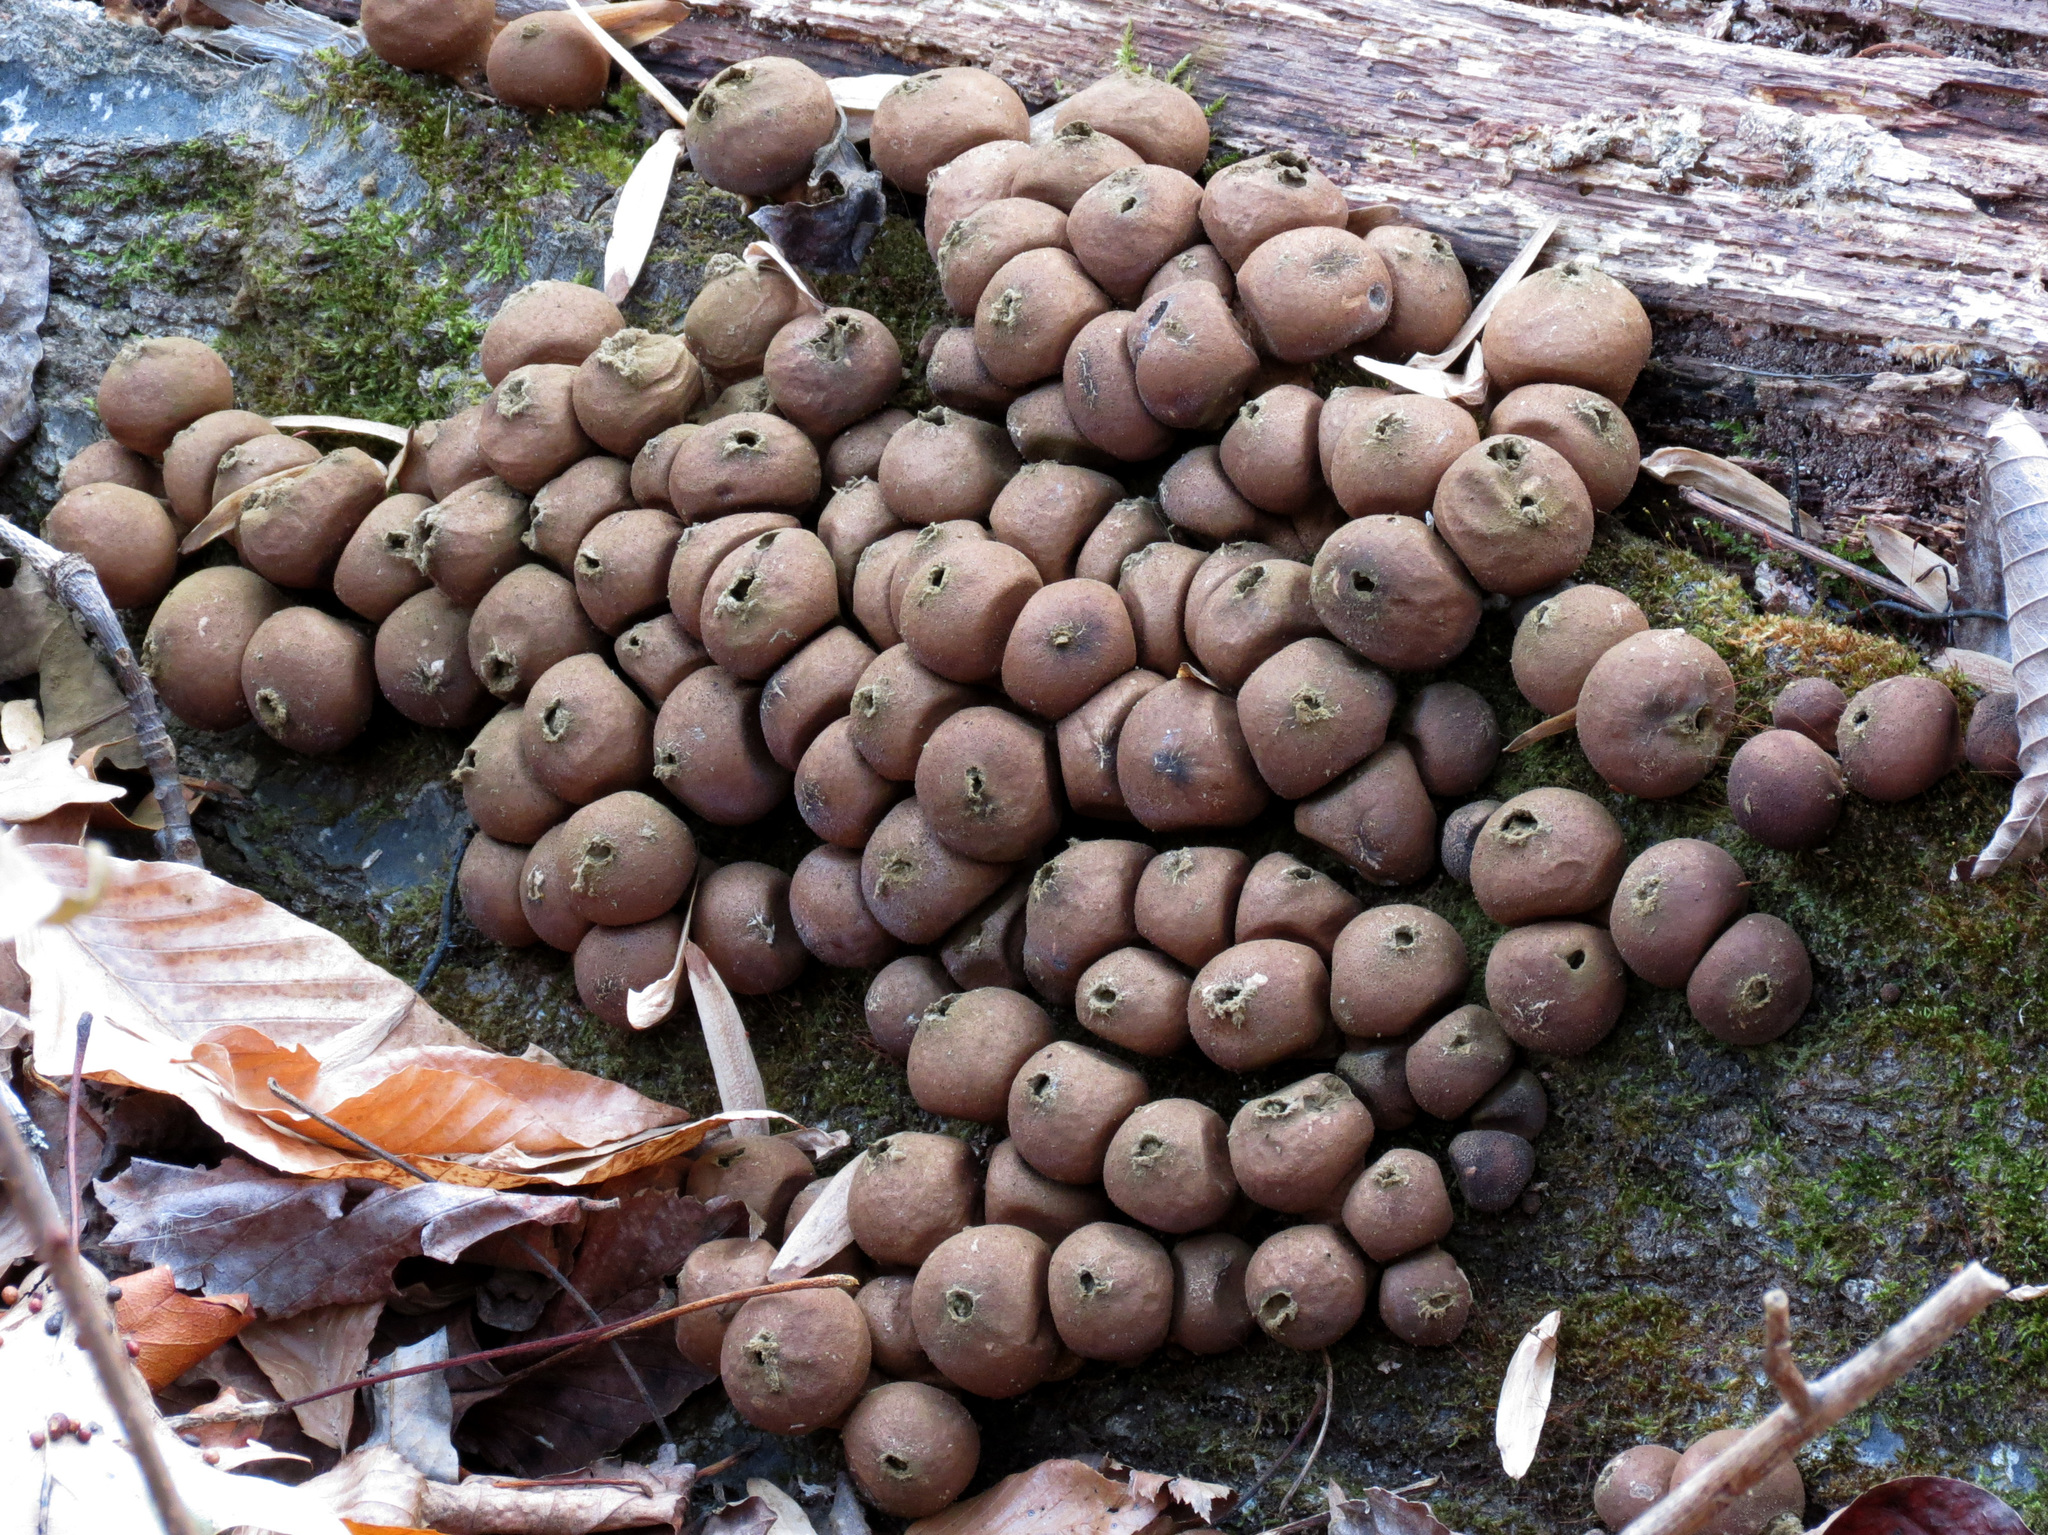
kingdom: Fungi
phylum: Basidiomycota
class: Agaricomycetes
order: Agaricales
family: Lycoperdaceae
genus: Apioperdon
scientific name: Apioperdon pyriforme
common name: Pear-shaped puffball
